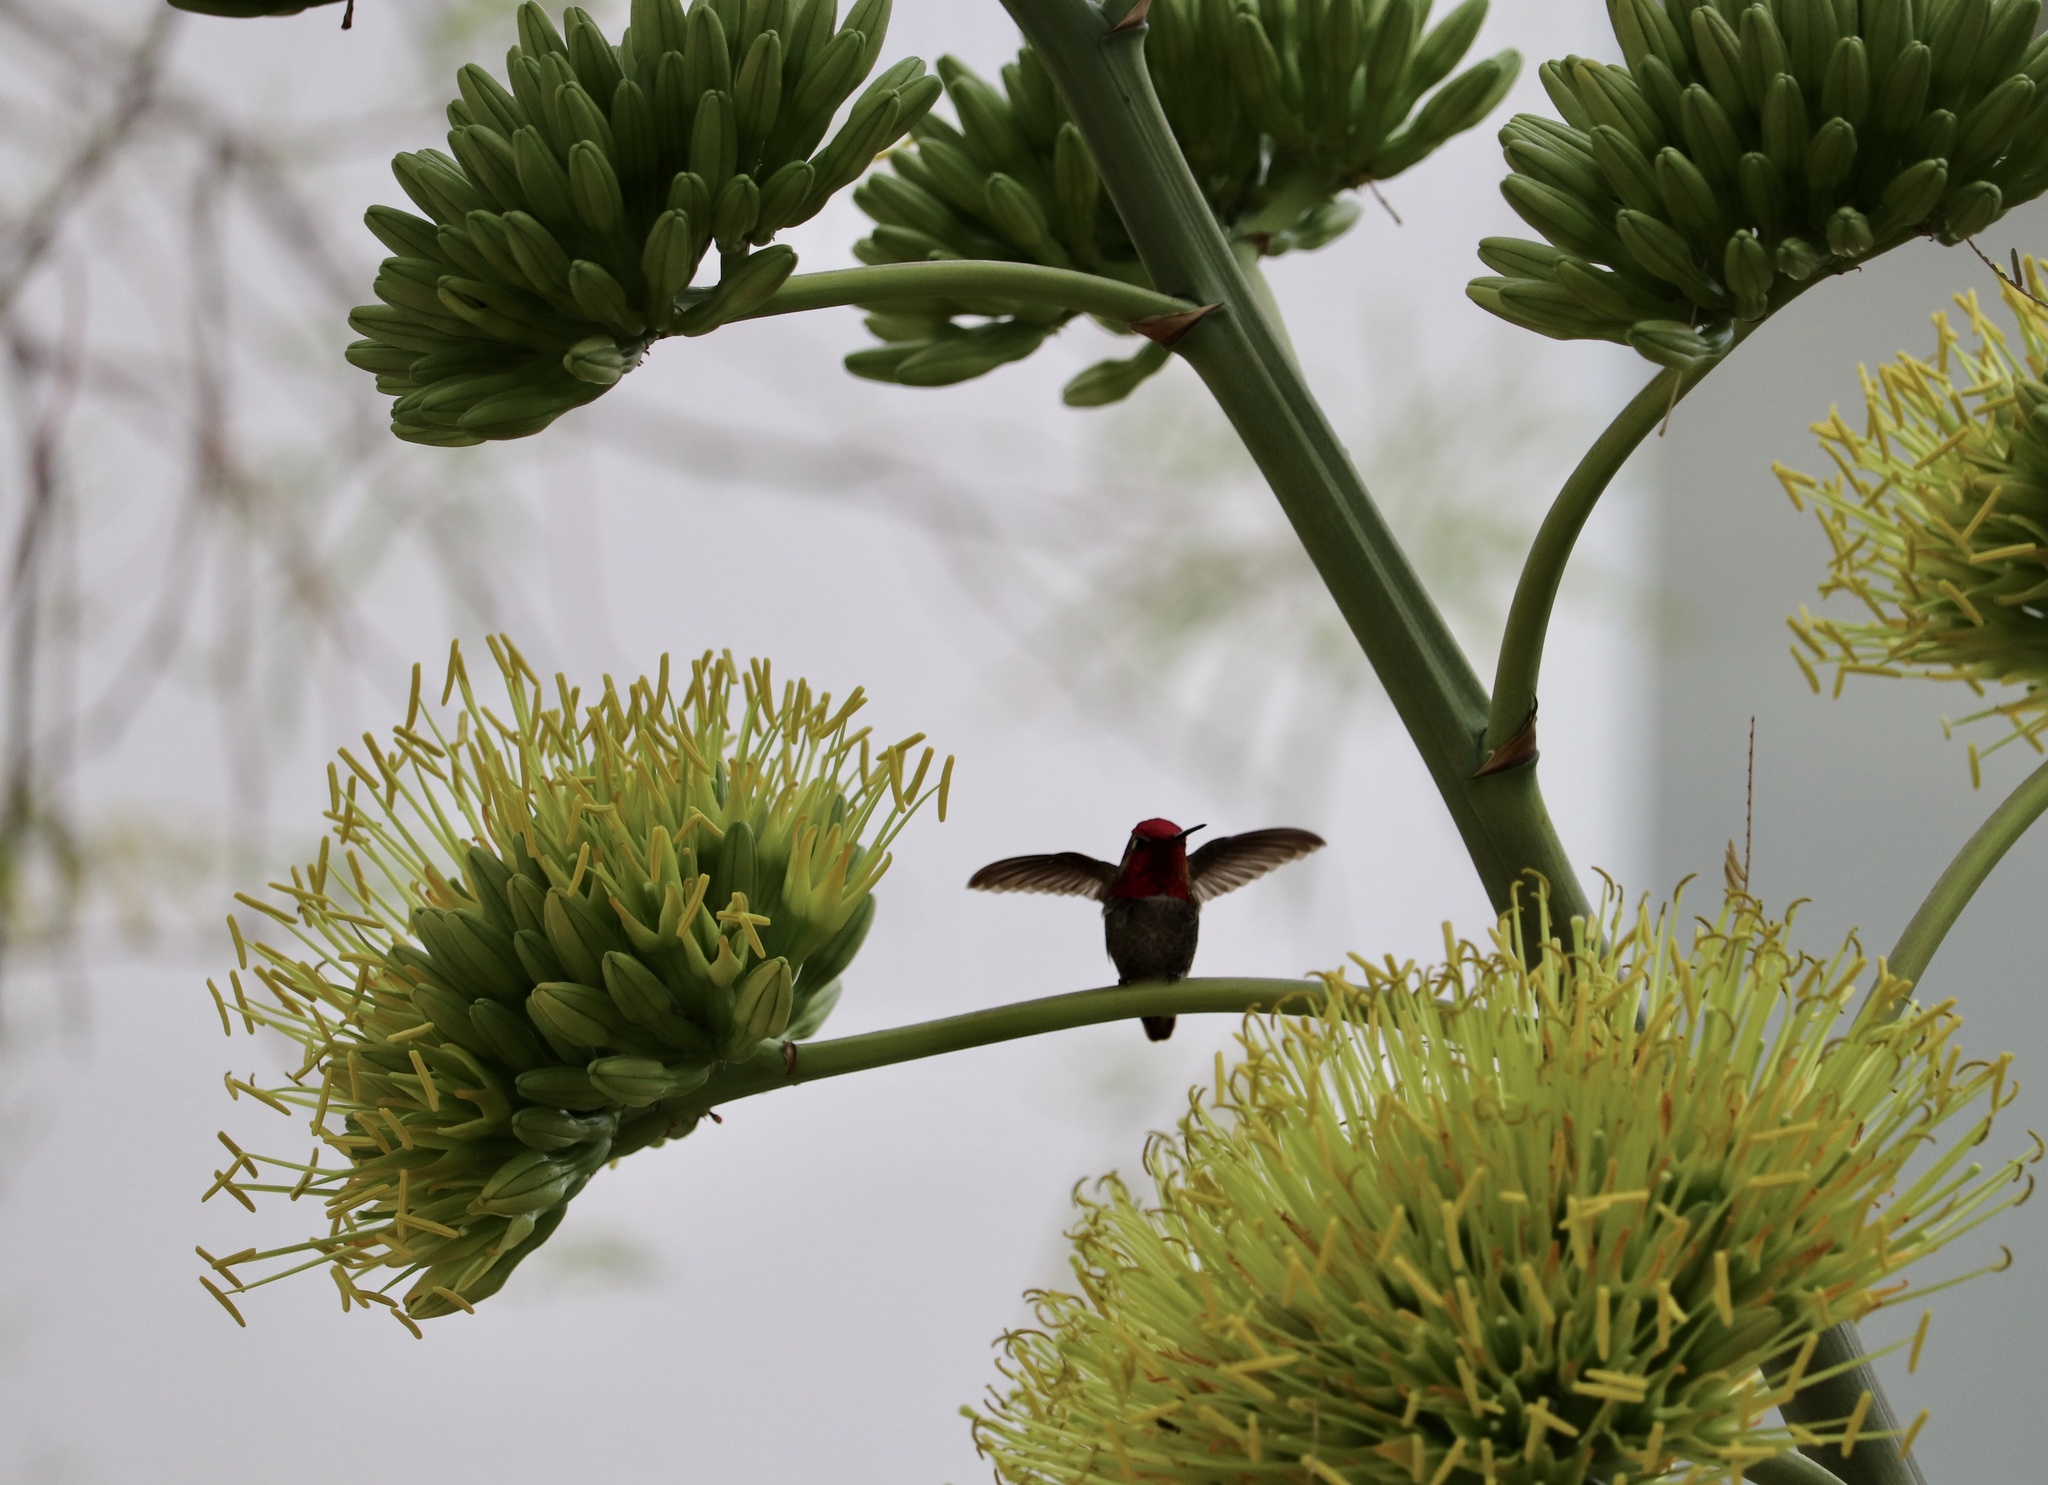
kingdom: Animalia
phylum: Chordata
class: Aves
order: Apodiformes
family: Trochilidae
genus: Calypte
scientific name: Calypte anna
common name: Anna's hummingbird
